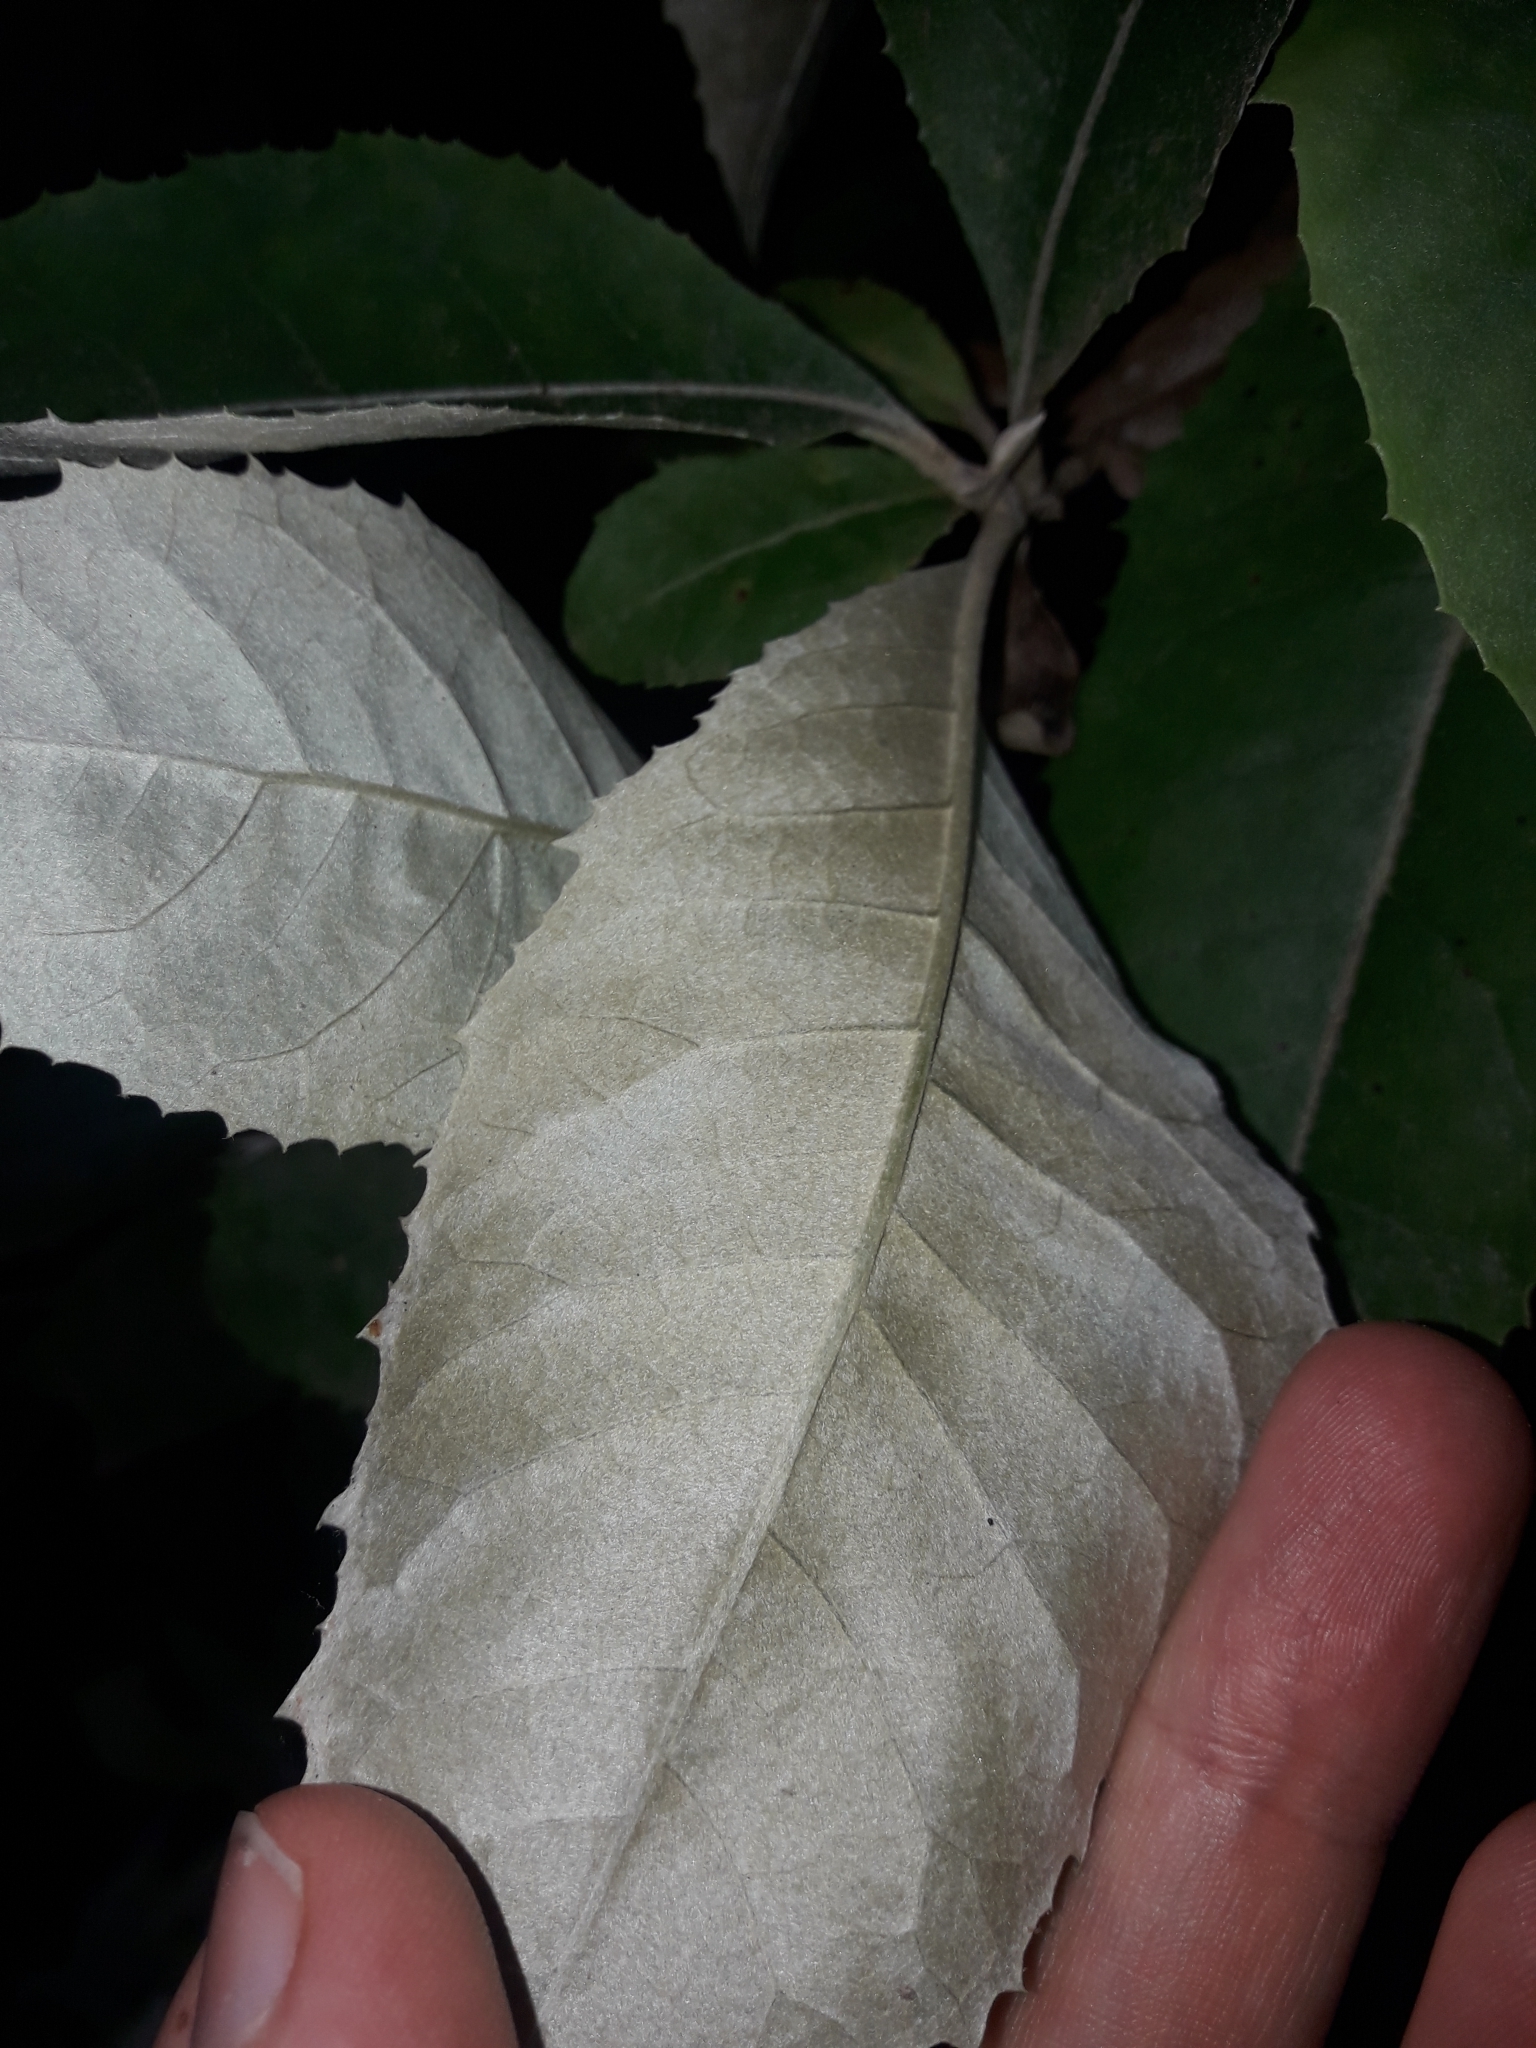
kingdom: Plantae
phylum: Tracheophyta
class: Magnoliopsida
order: Asterales
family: Asteraceae
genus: Olearia
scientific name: Olearia argophylla
